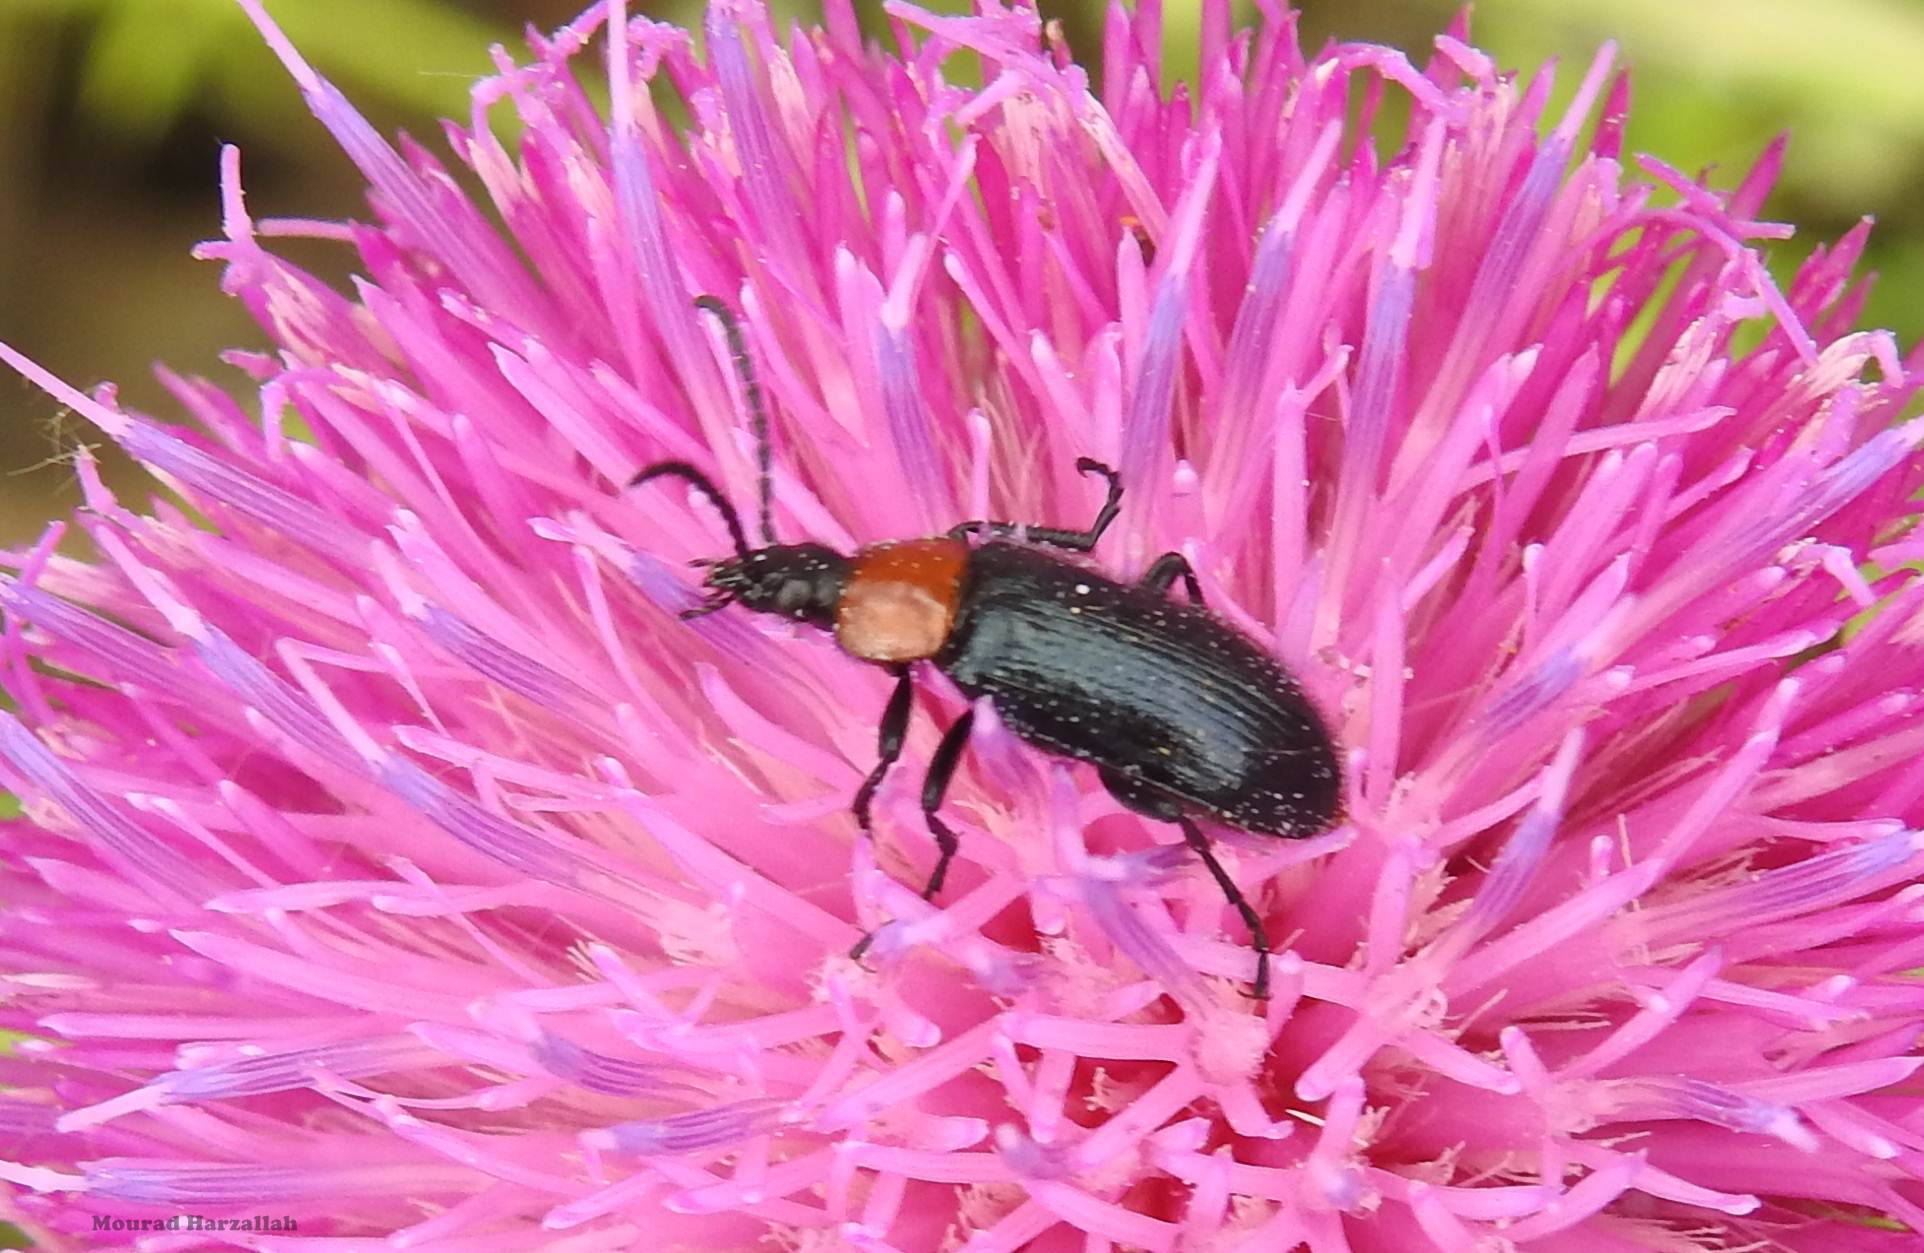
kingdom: Animalia
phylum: Arthropoda
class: Insecta
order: Coleoptera
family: Tenebrionidae
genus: Heliotaurus
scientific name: Heliotaurus ruficollis
